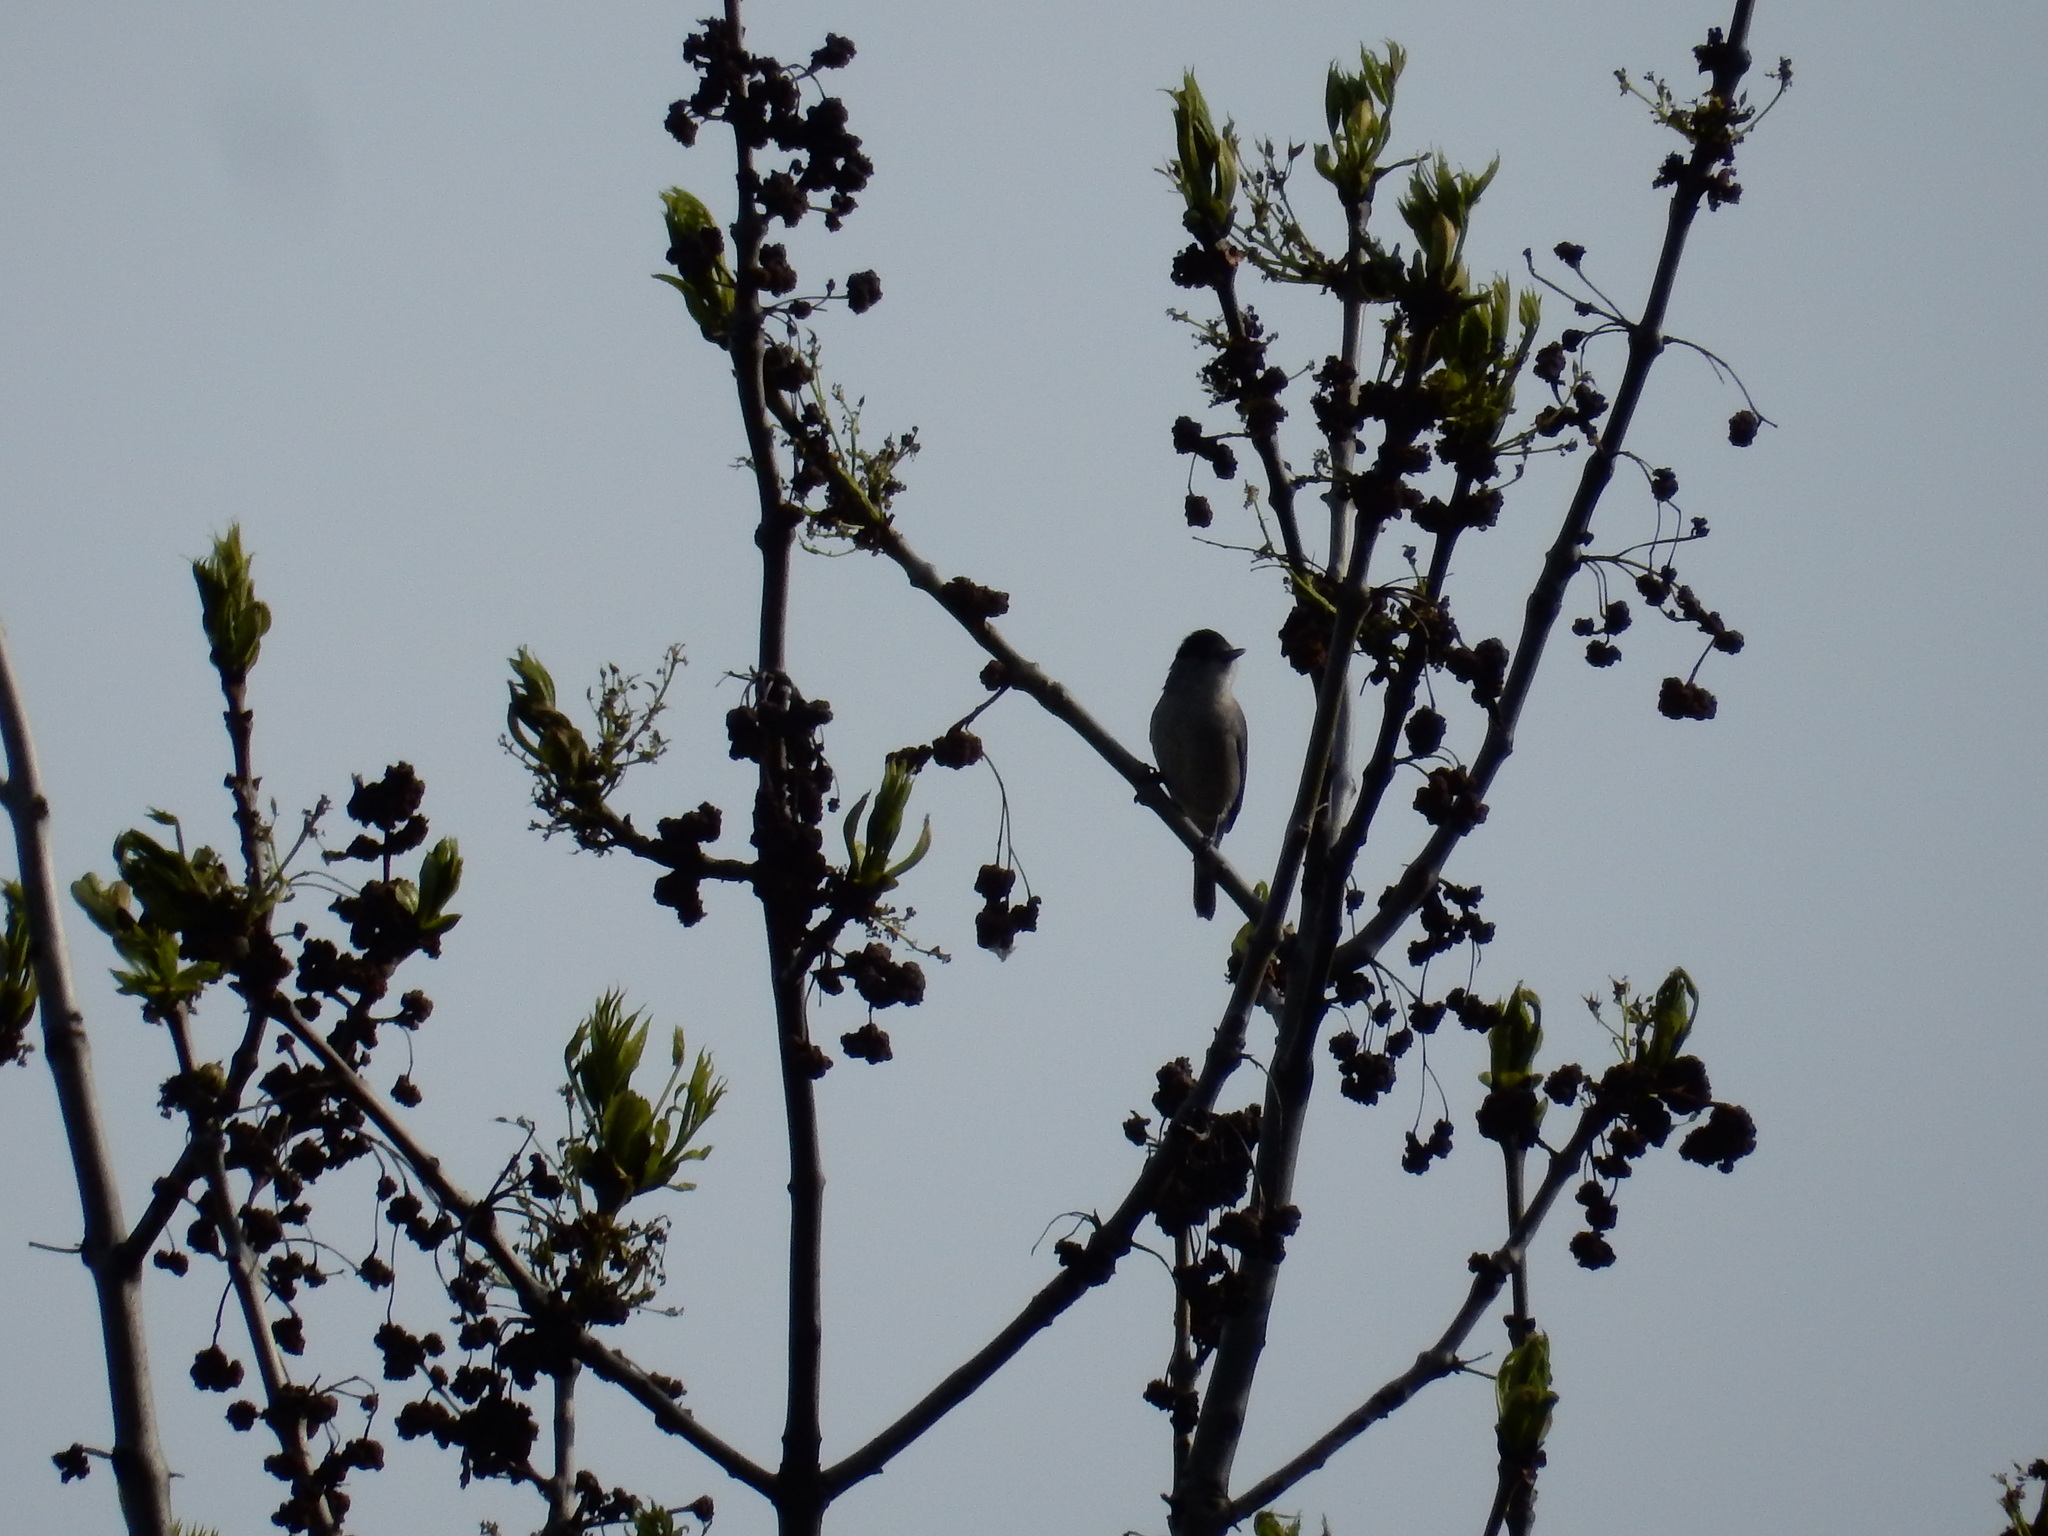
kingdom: Animalia
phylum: Chordata
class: Aves
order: Passeriformes
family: Sylviidae
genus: Sylvia
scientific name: Sylvia atricapilla
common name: Eurasian blackcap
